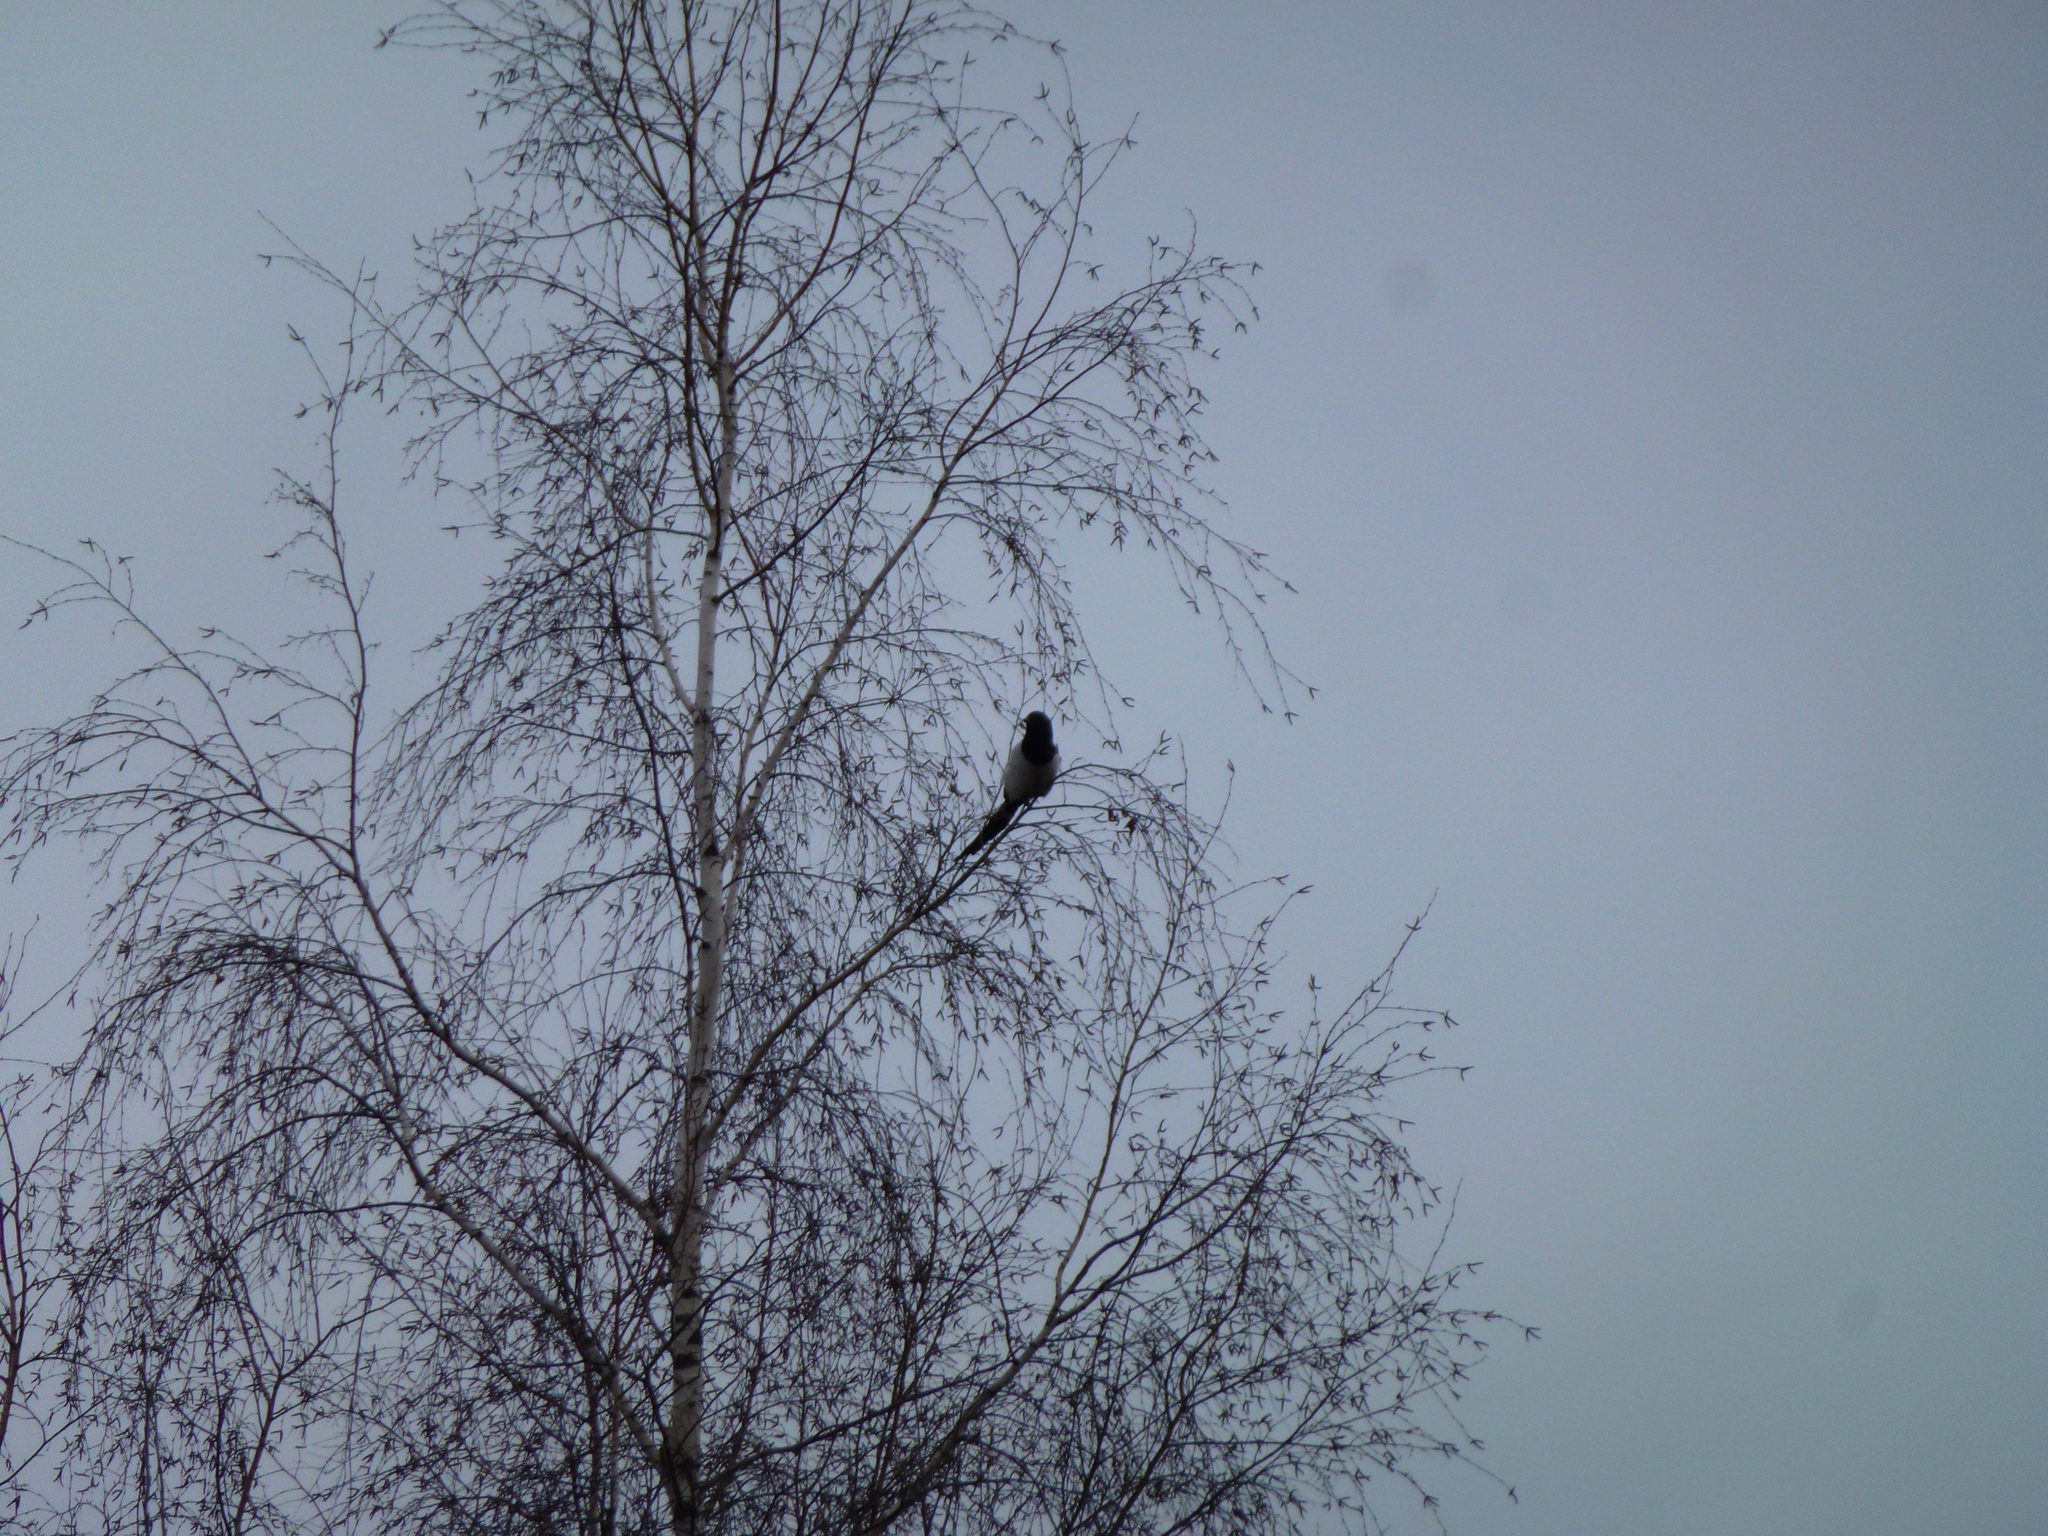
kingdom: Animalia
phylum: Chordata
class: Aves
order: Passeriformes
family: Corvidae
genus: Pica
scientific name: Pica pica
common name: Eurasian magpie
